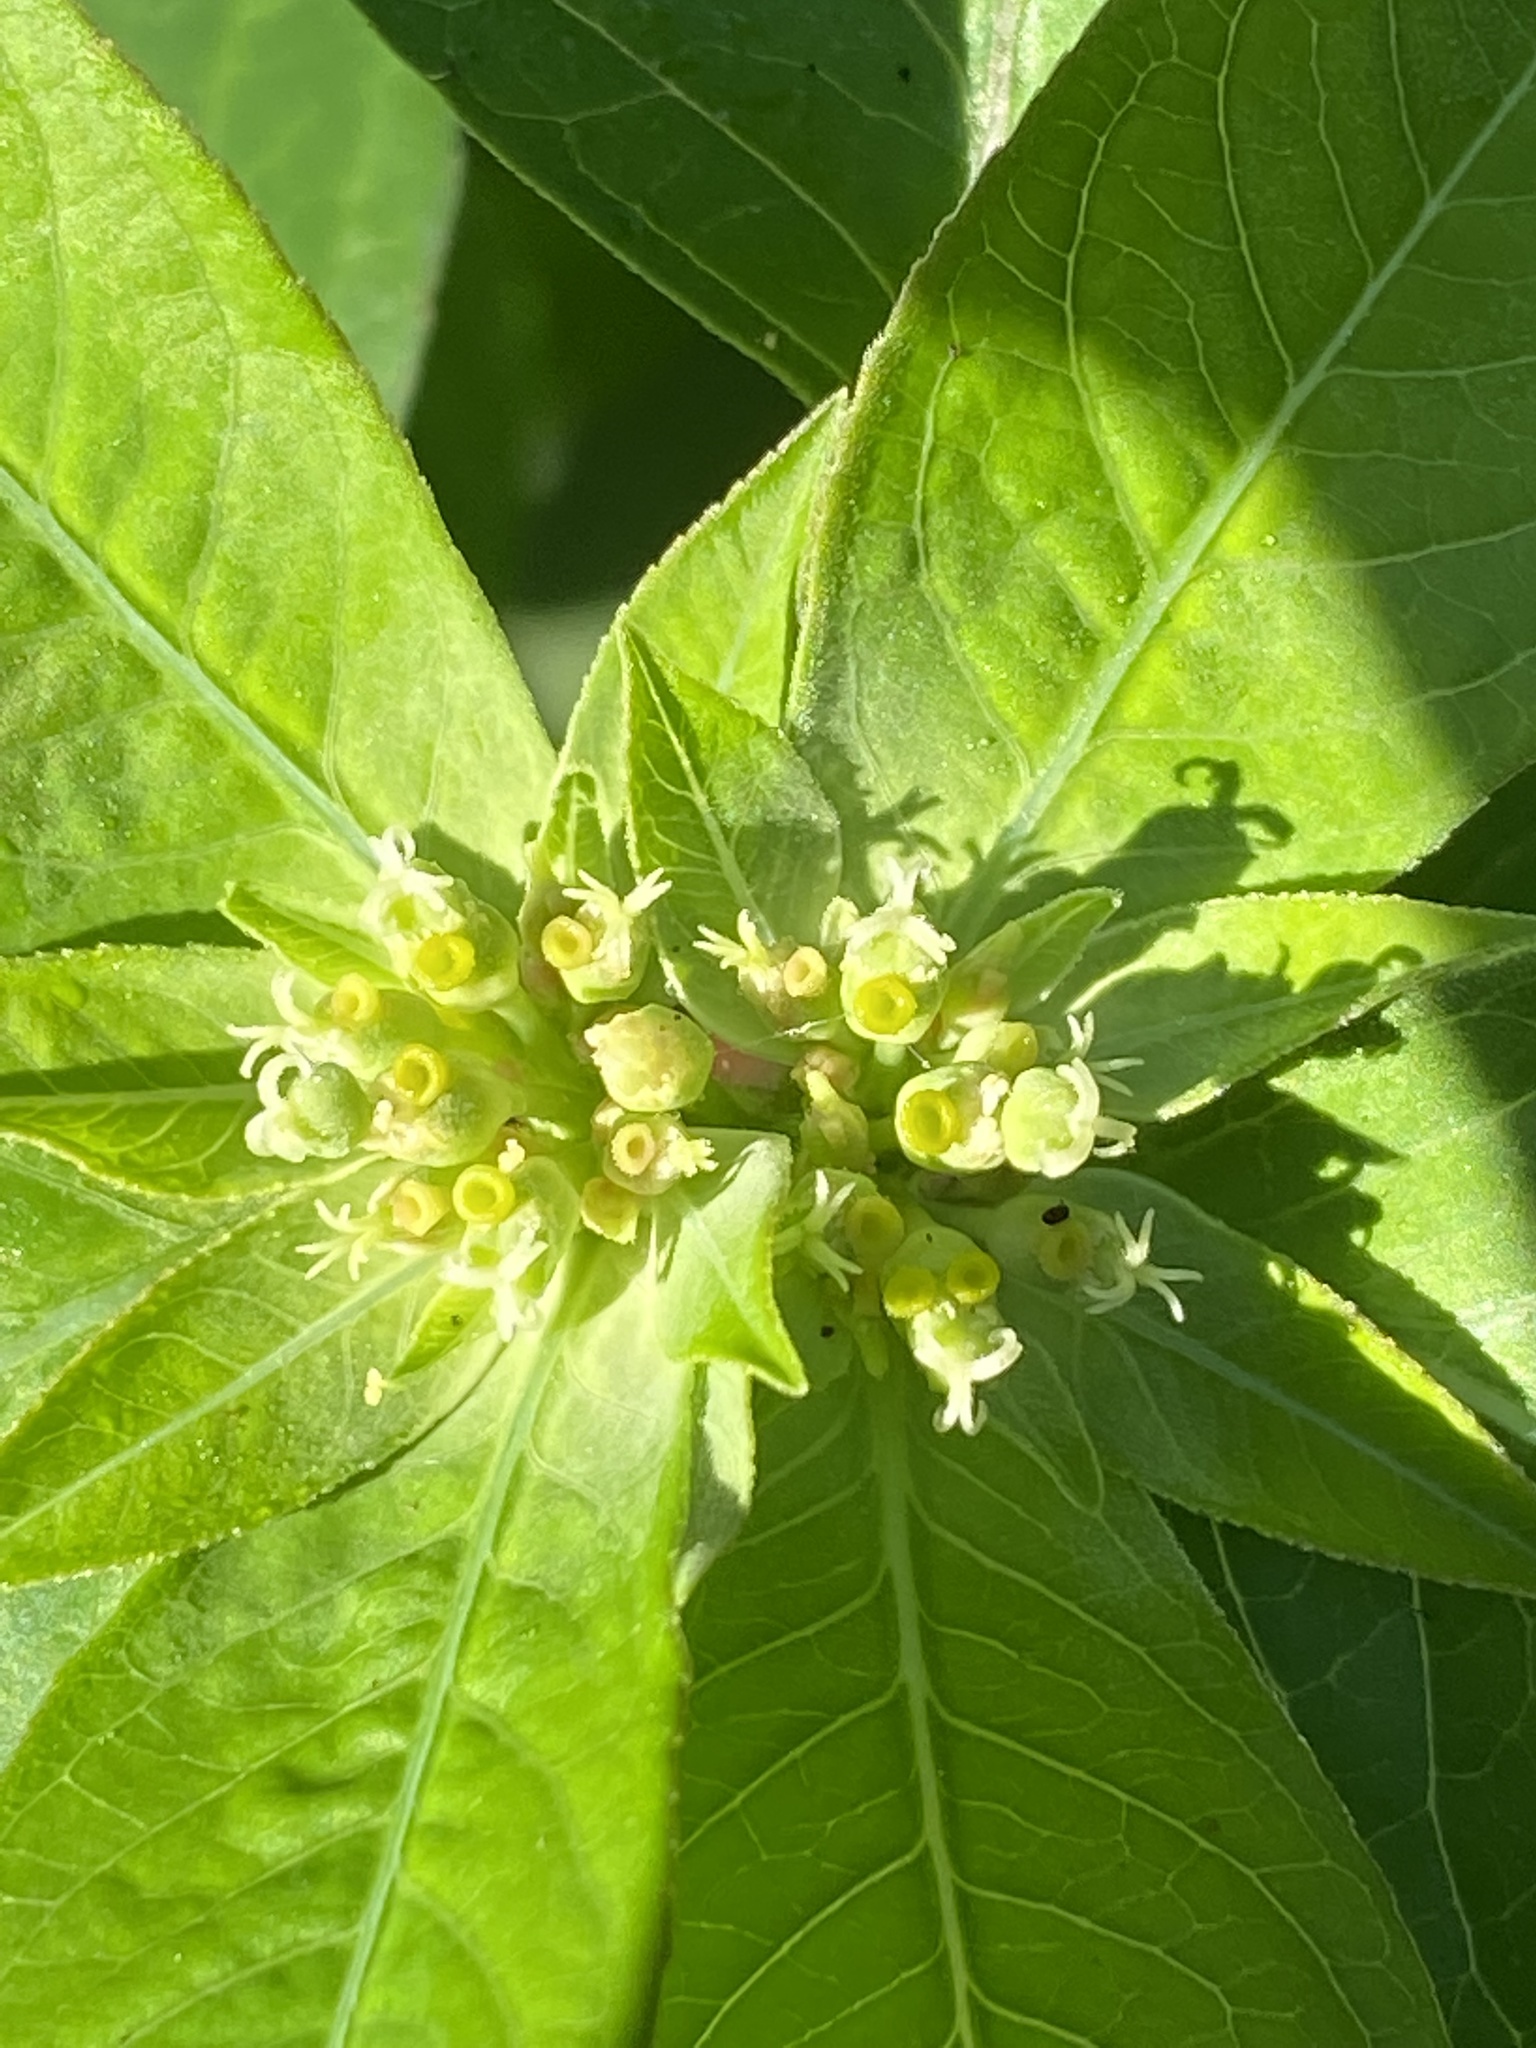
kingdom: Plantae
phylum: Tracheophyta
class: Magnoliopsida
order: Malpighiales
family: Euphorbiaceae
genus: Euphorbia
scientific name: Euphorbia heterophylla
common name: Mexican fireplant
